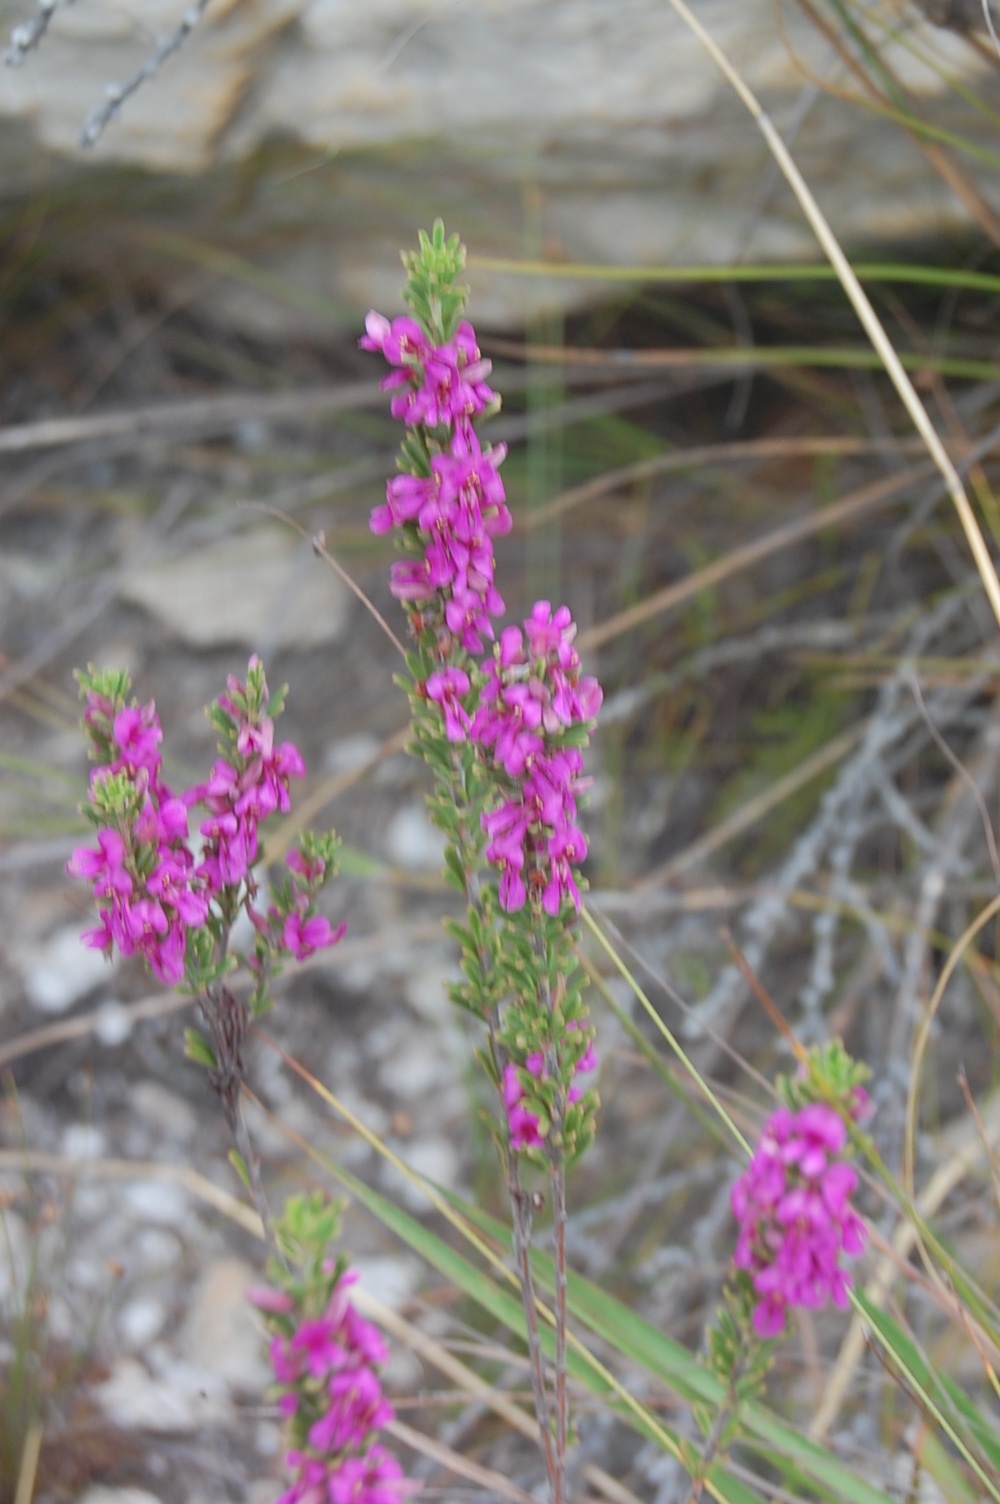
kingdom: Plantae
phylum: Tracheophyta
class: Magnoliopsida
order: Fabales
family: Fabaceae
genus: Indigofera
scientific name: Indigofera pappei
